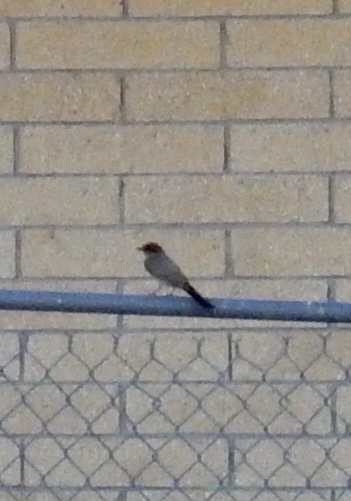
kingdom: Animalia
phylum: Chordata
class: Aves
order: Passeriformes
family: Tyrannidae
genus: Sayornis
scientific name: Sayornis saya
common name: Say's phoebe
